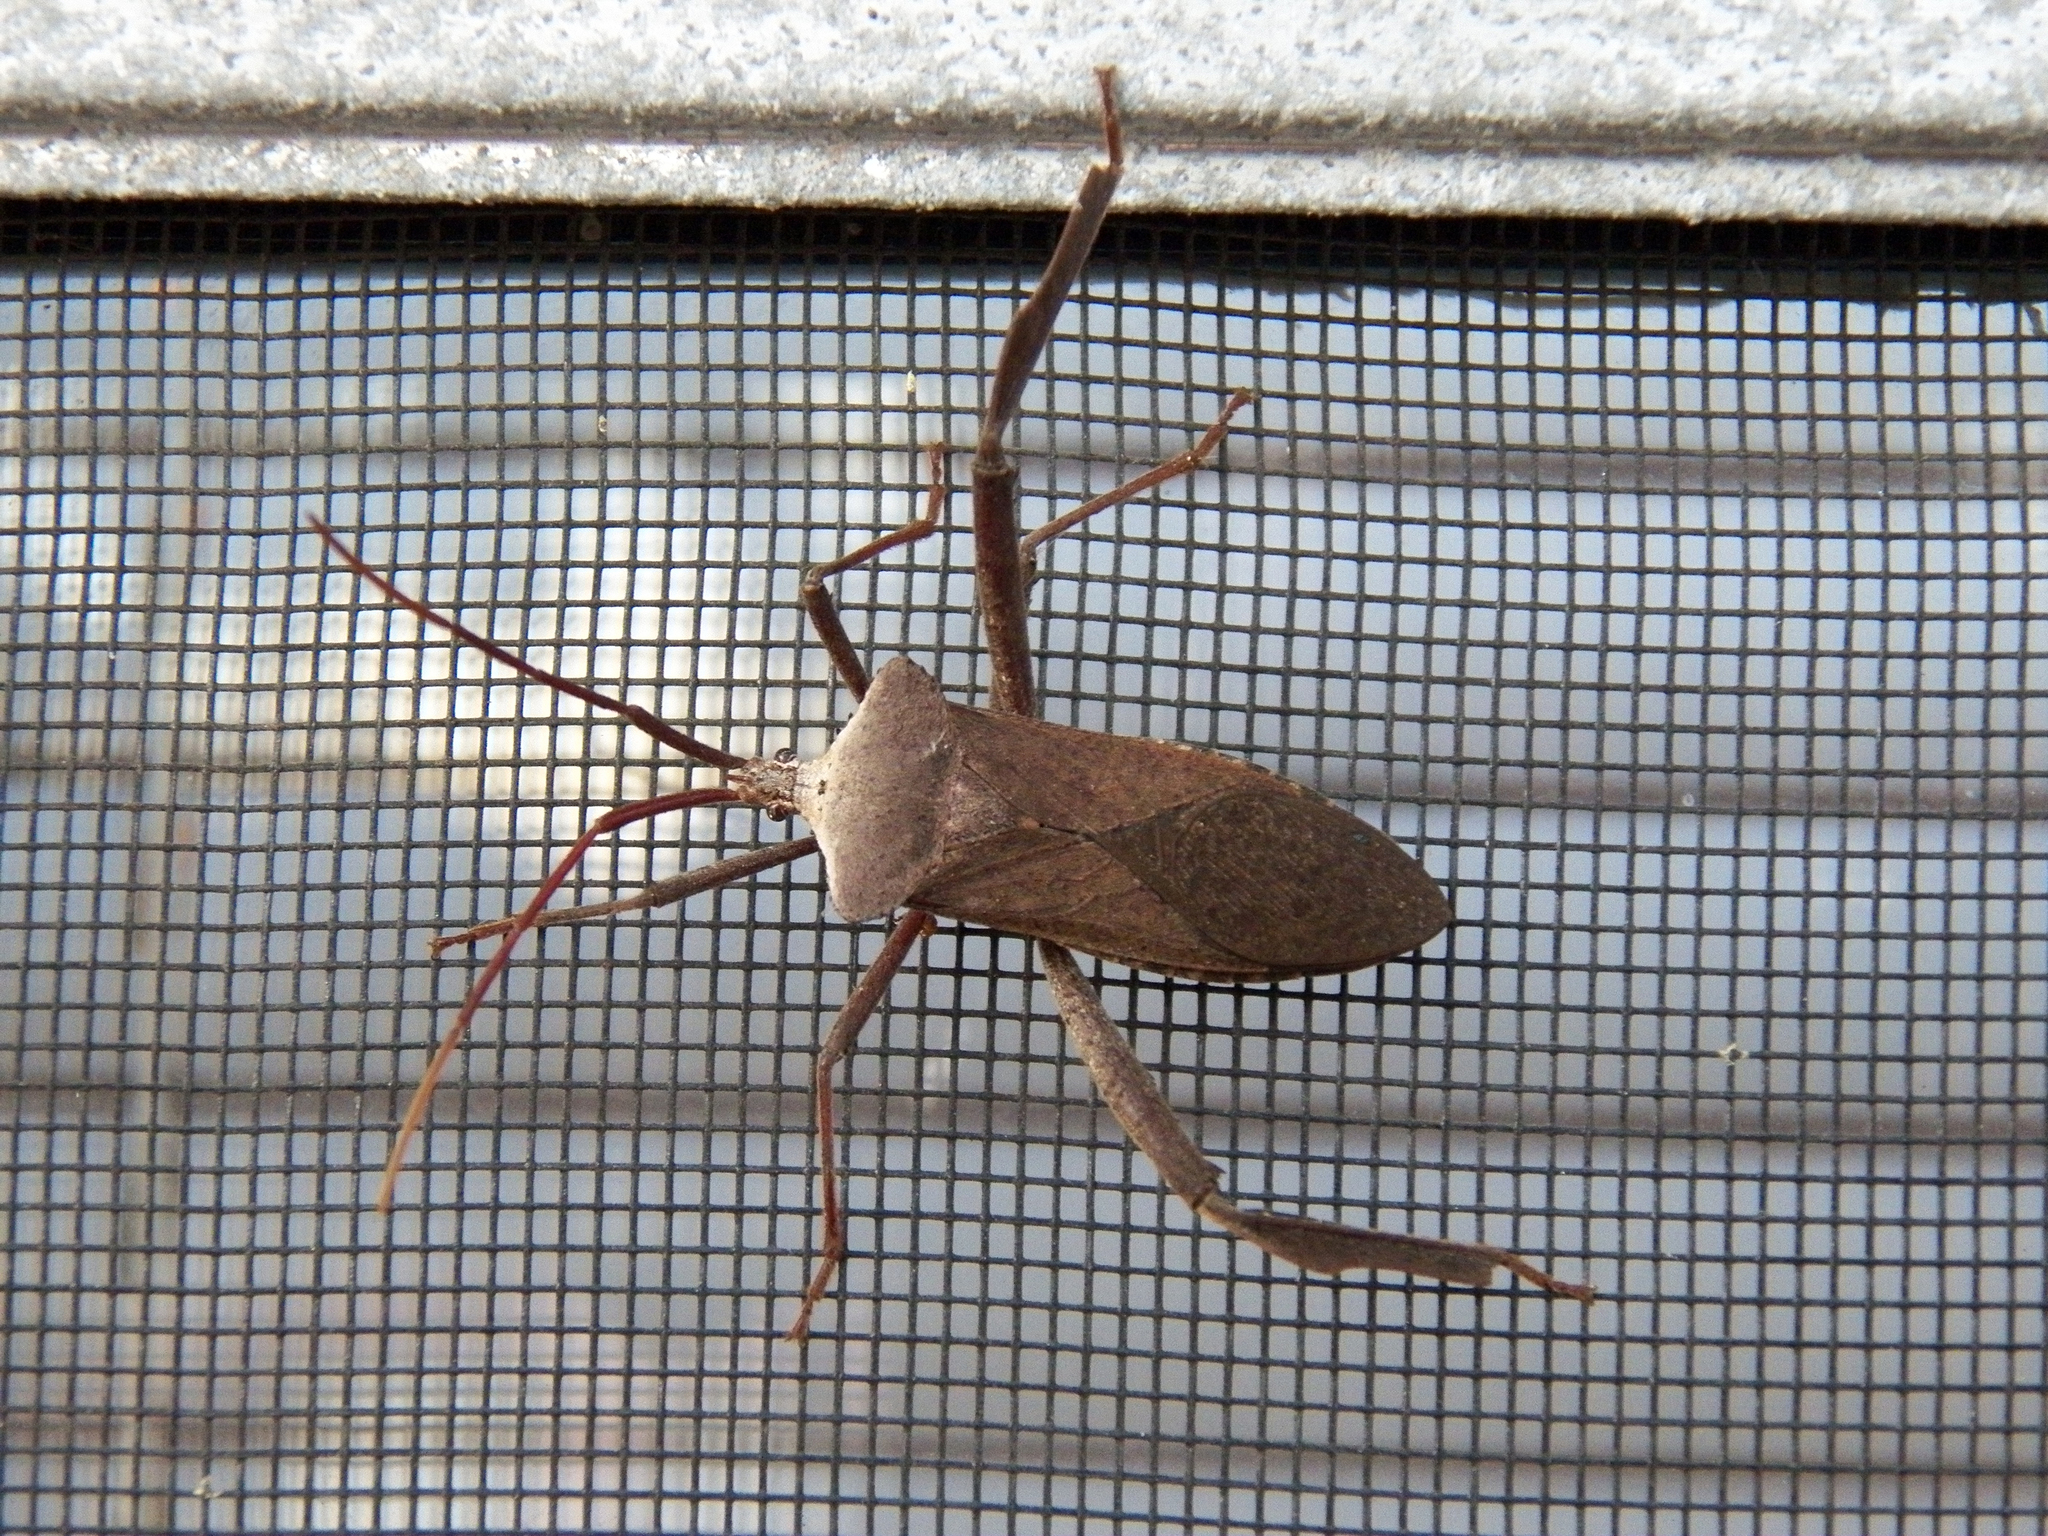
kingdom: Animalia
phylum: Arthropoda
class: Insecta
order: Hemiptera
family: Coreidae
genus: Acanthocephala
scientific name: Acanthocephala declivis
